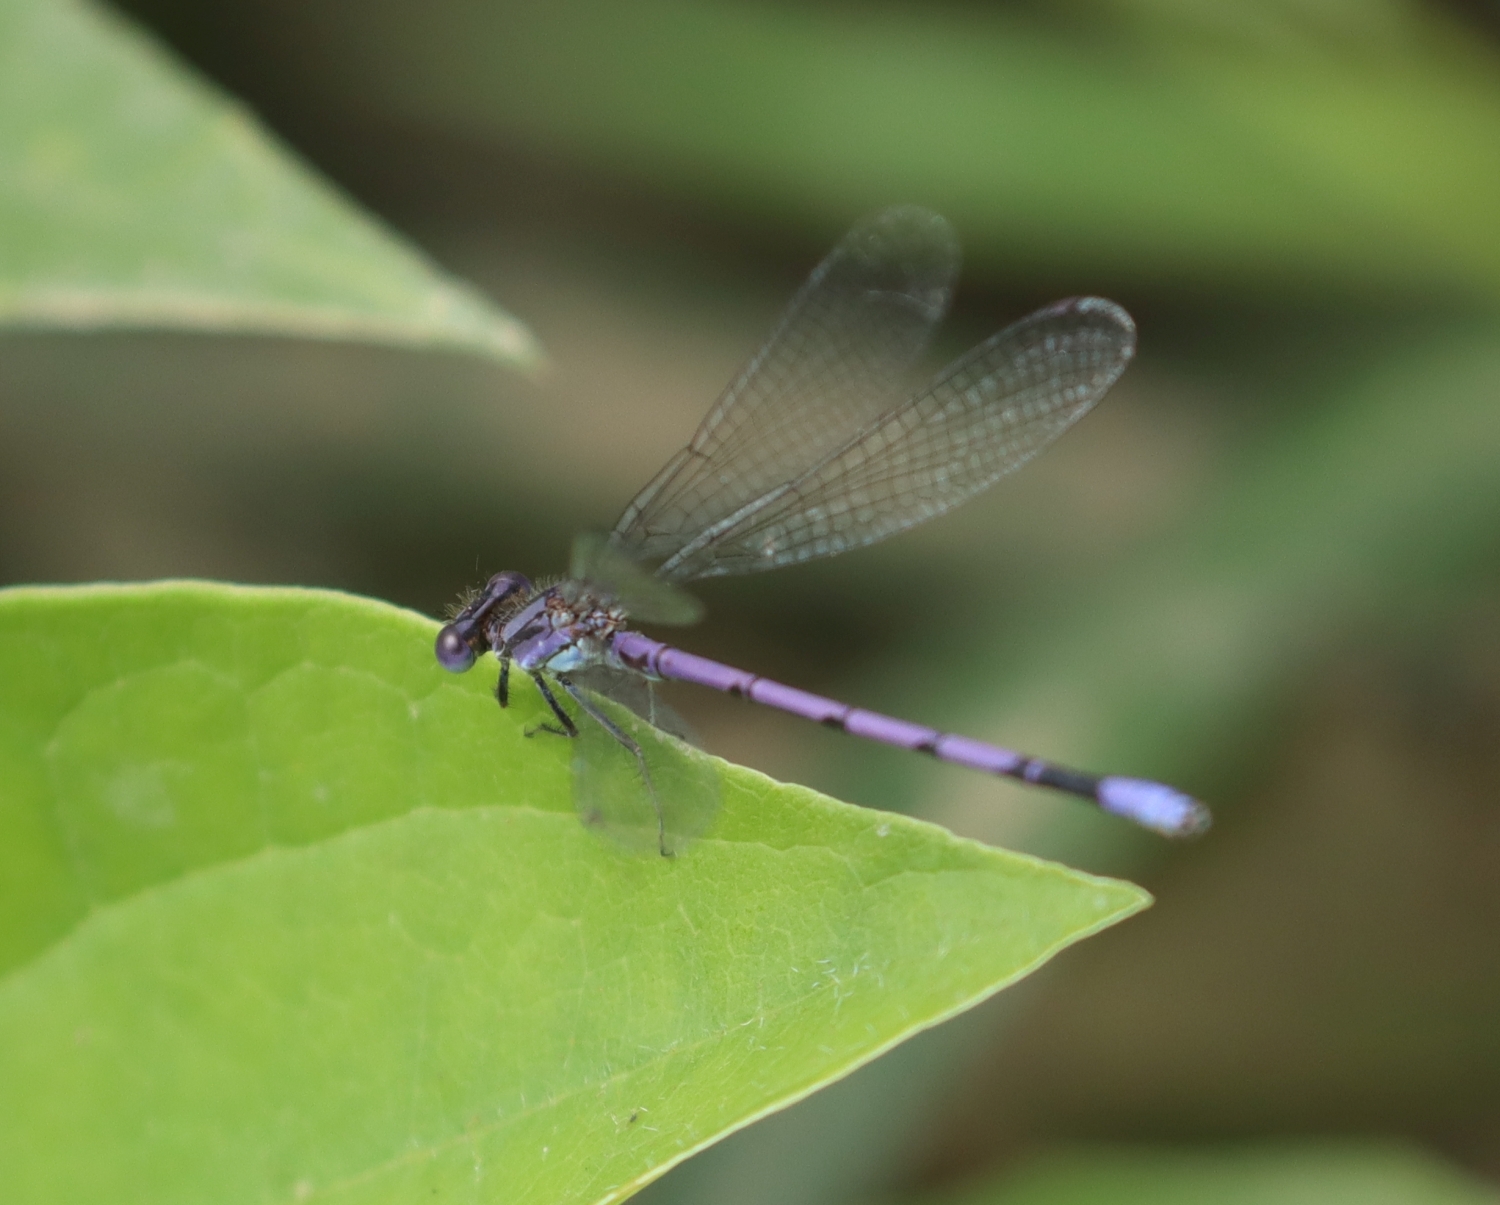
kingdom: Animalia
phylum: Arthropoda
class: Insecta
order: Odonata
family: Coenagrionidae
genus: Argia
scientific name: Argia fumipennis
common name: Variable dancer
